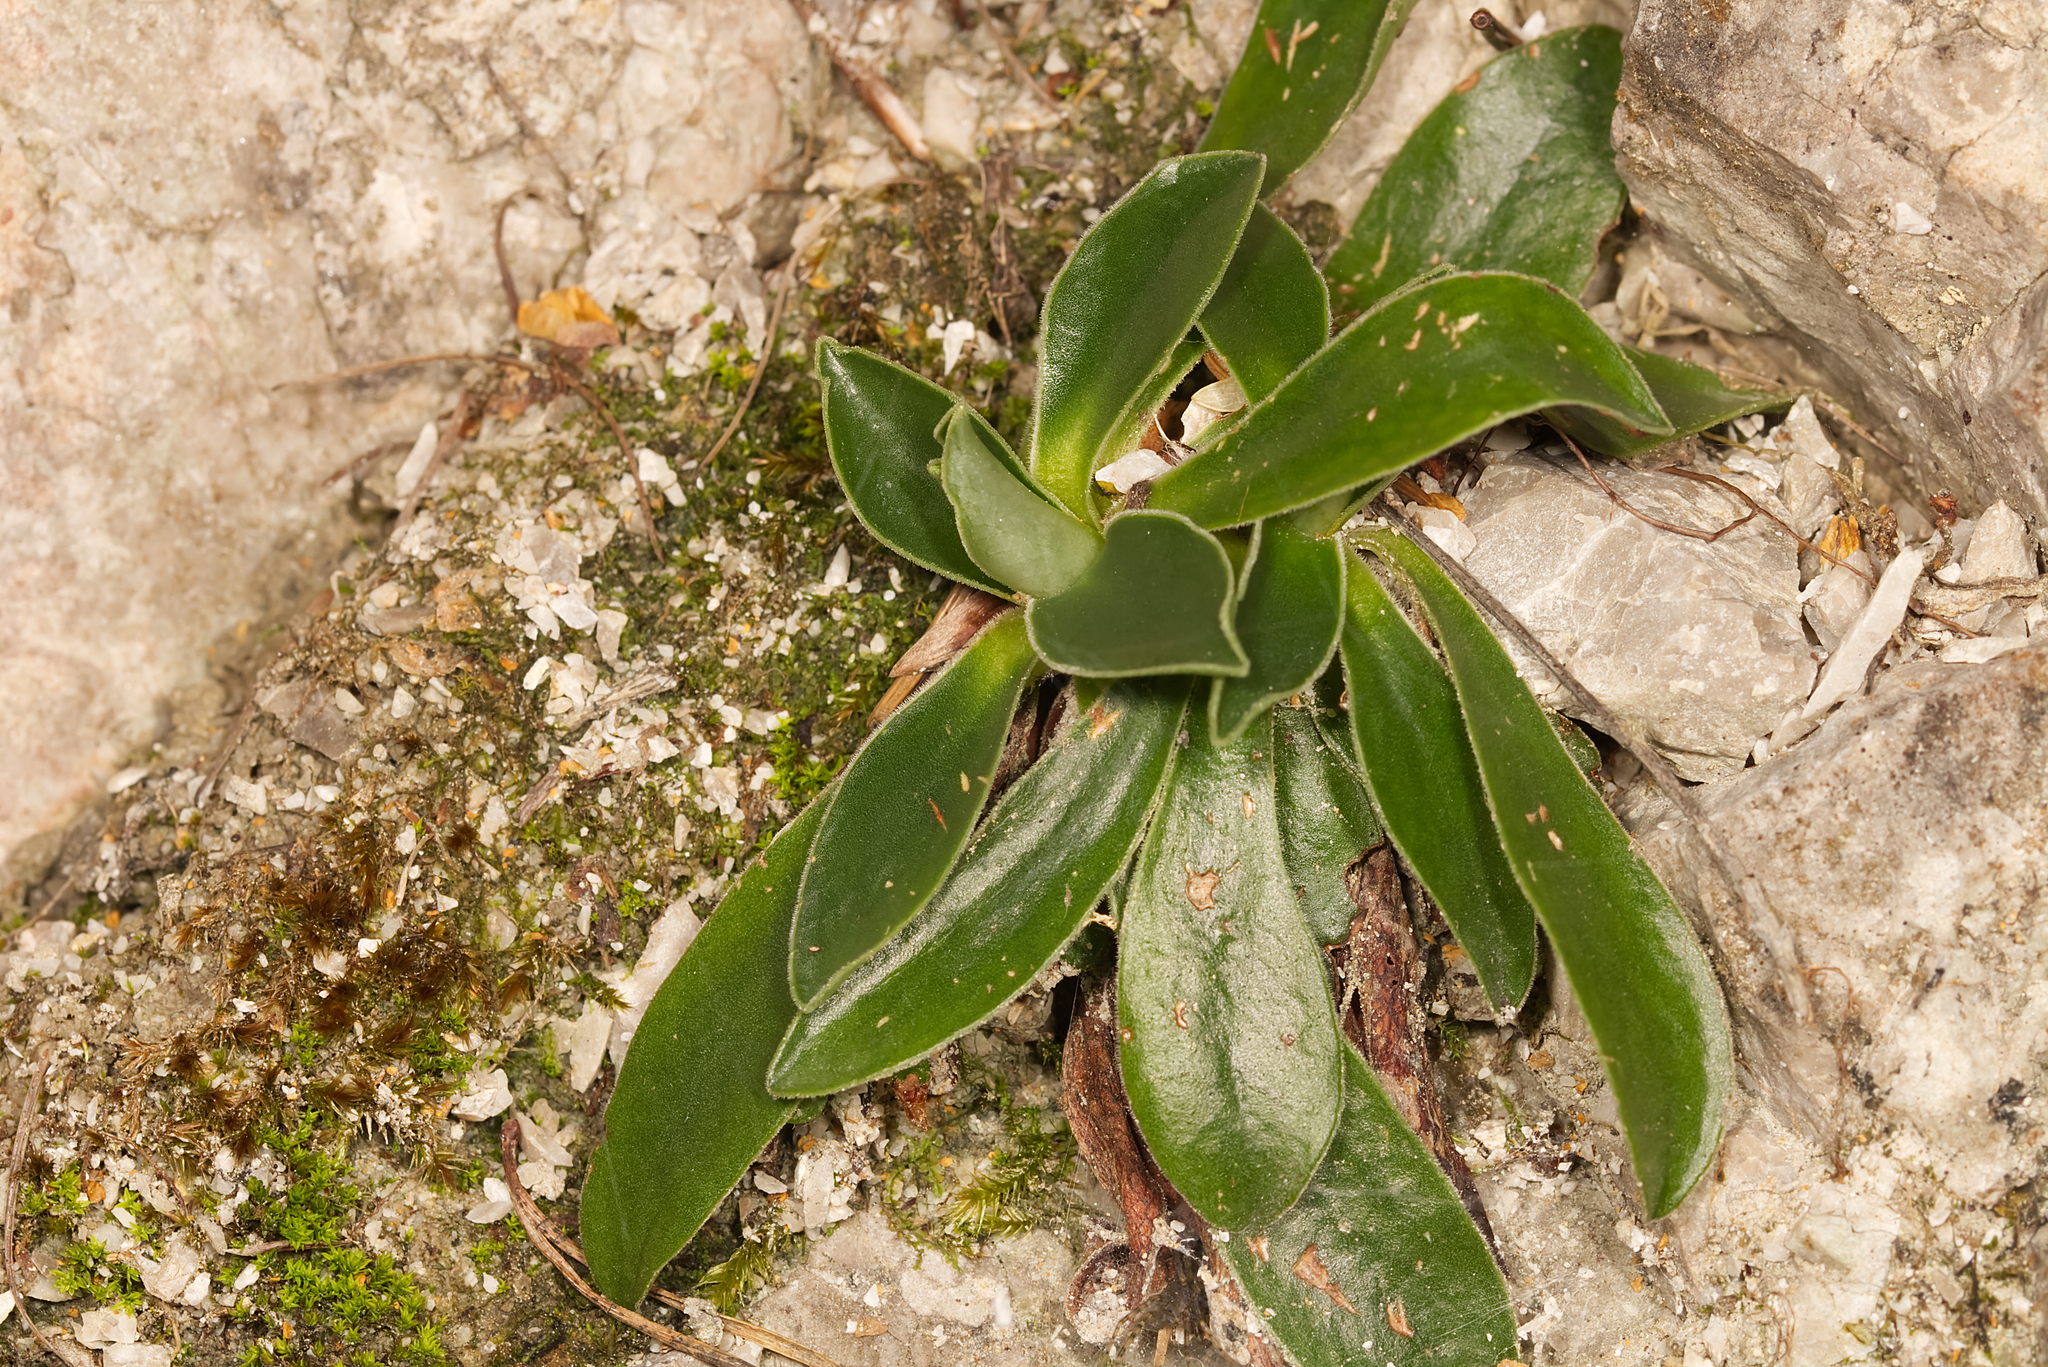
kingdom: Plantae
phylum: Tracheophyta
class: Magnoliopsida
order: Ericales
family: Primulaceae
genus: Primula
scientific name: Primula clusiana
